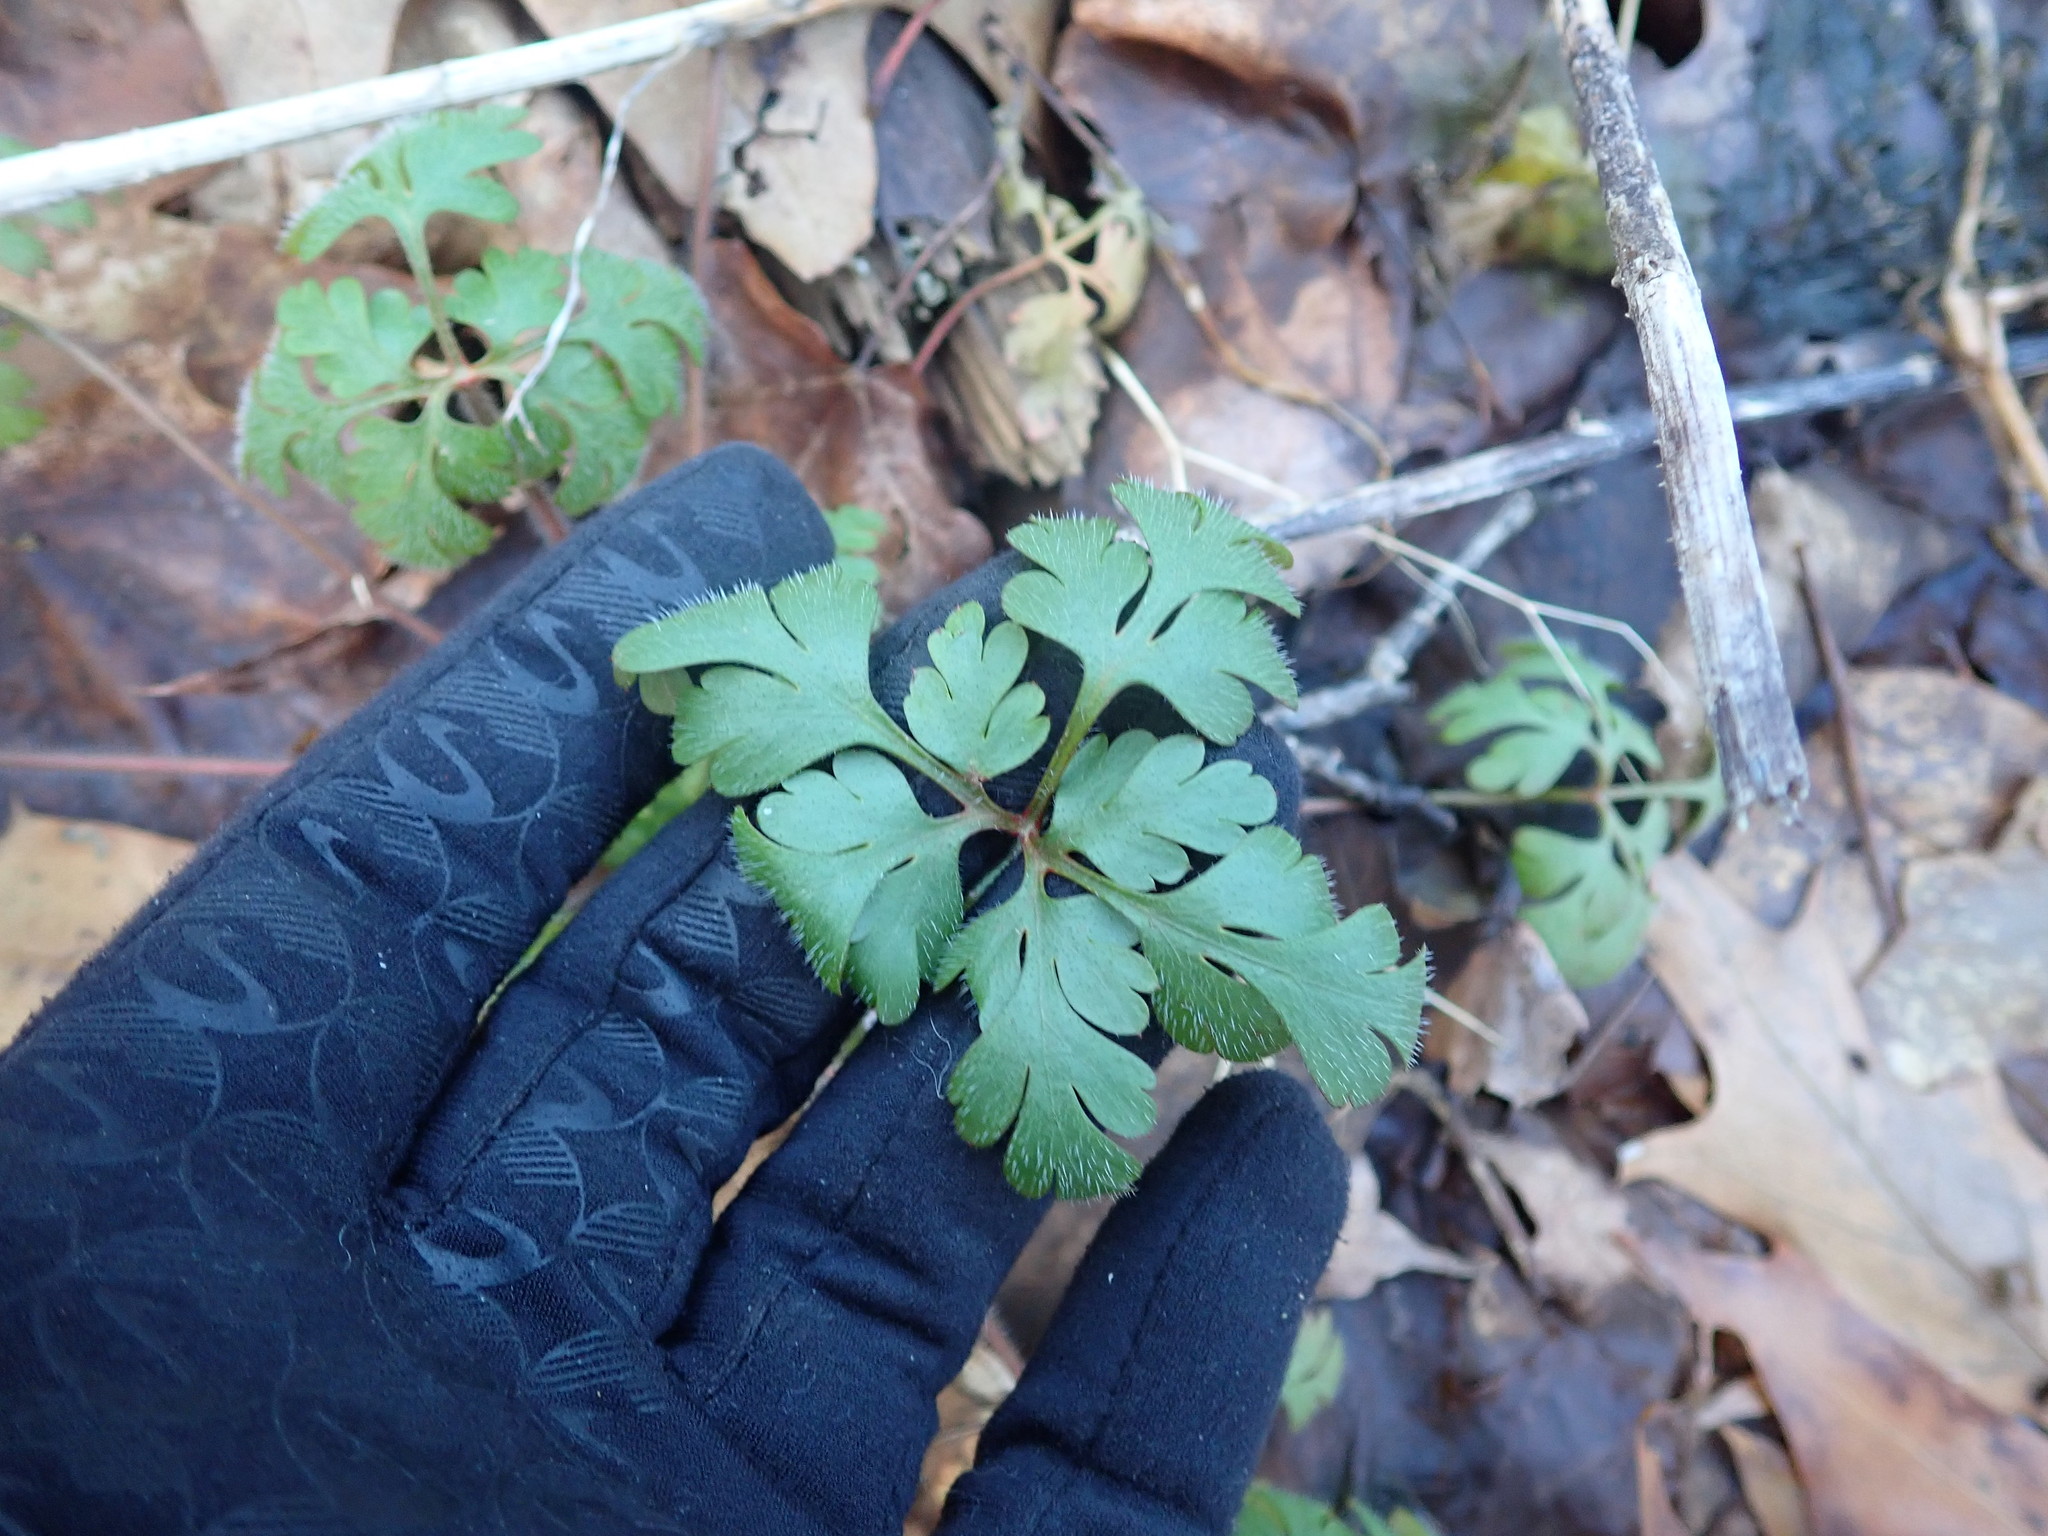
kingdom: Plantae
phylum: Tracheophyta
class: Magnoliopsida
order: Geraniales
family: Geraniaceae
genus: Geranium
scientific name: Geranium robertianum
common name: Herb-robert
